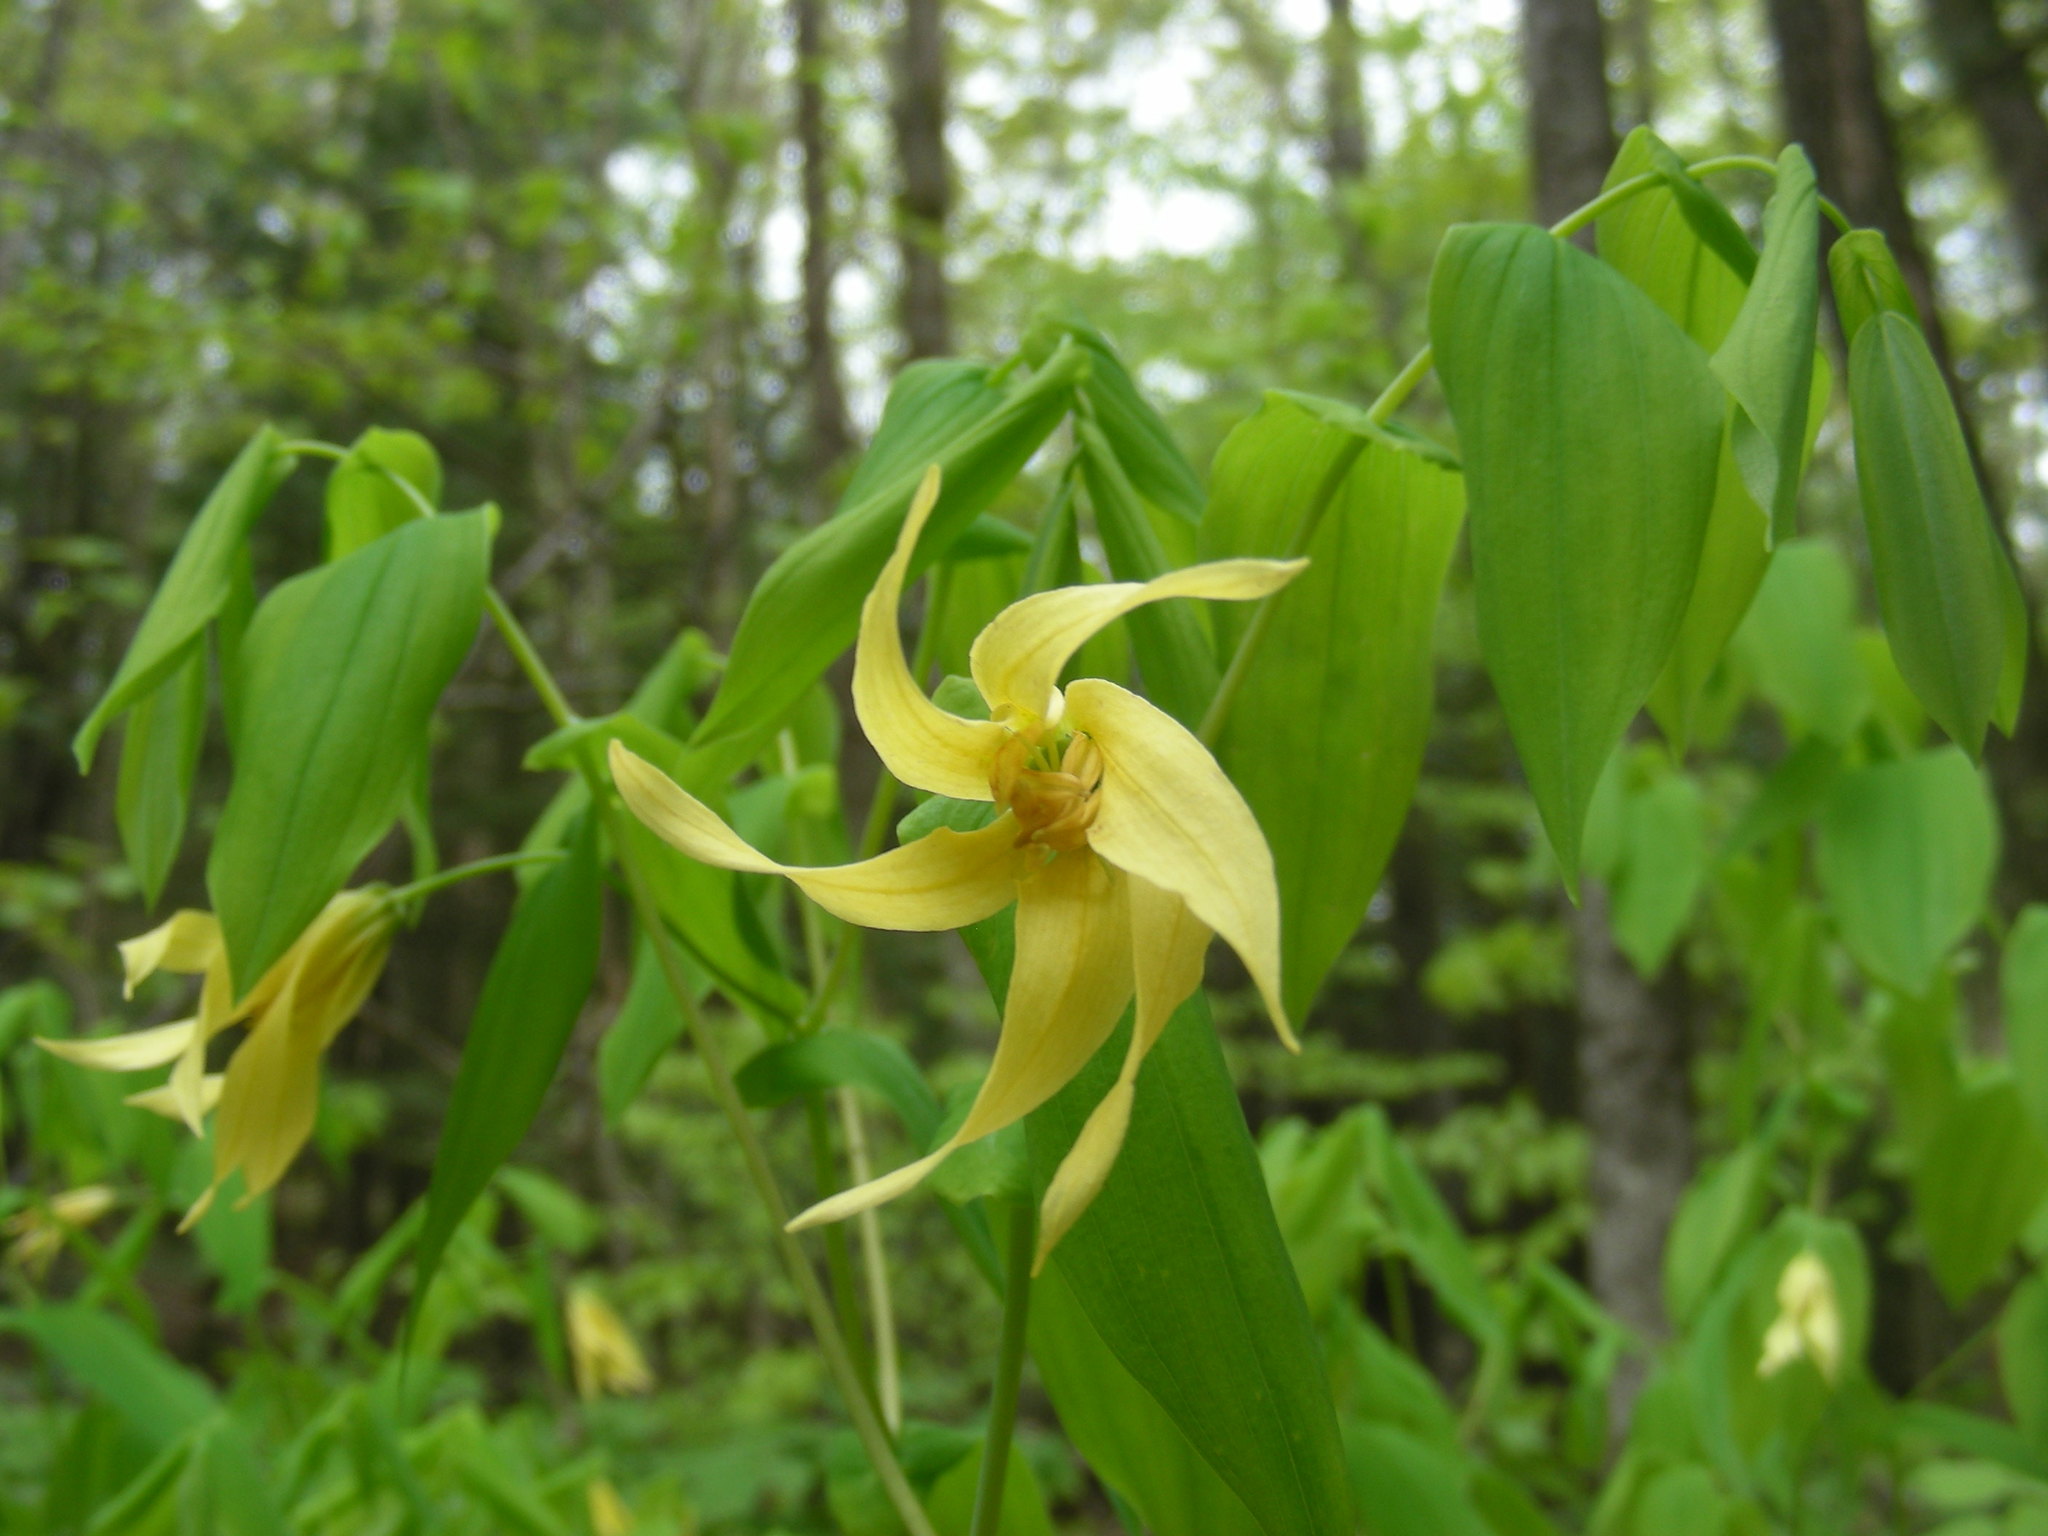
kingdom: Plantae
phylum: Tracheophyta
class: Liliopsida
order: Liliales
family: Colchicaceae
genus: Uvularia
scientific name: Uvularia grandiflora
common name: Bellwort
